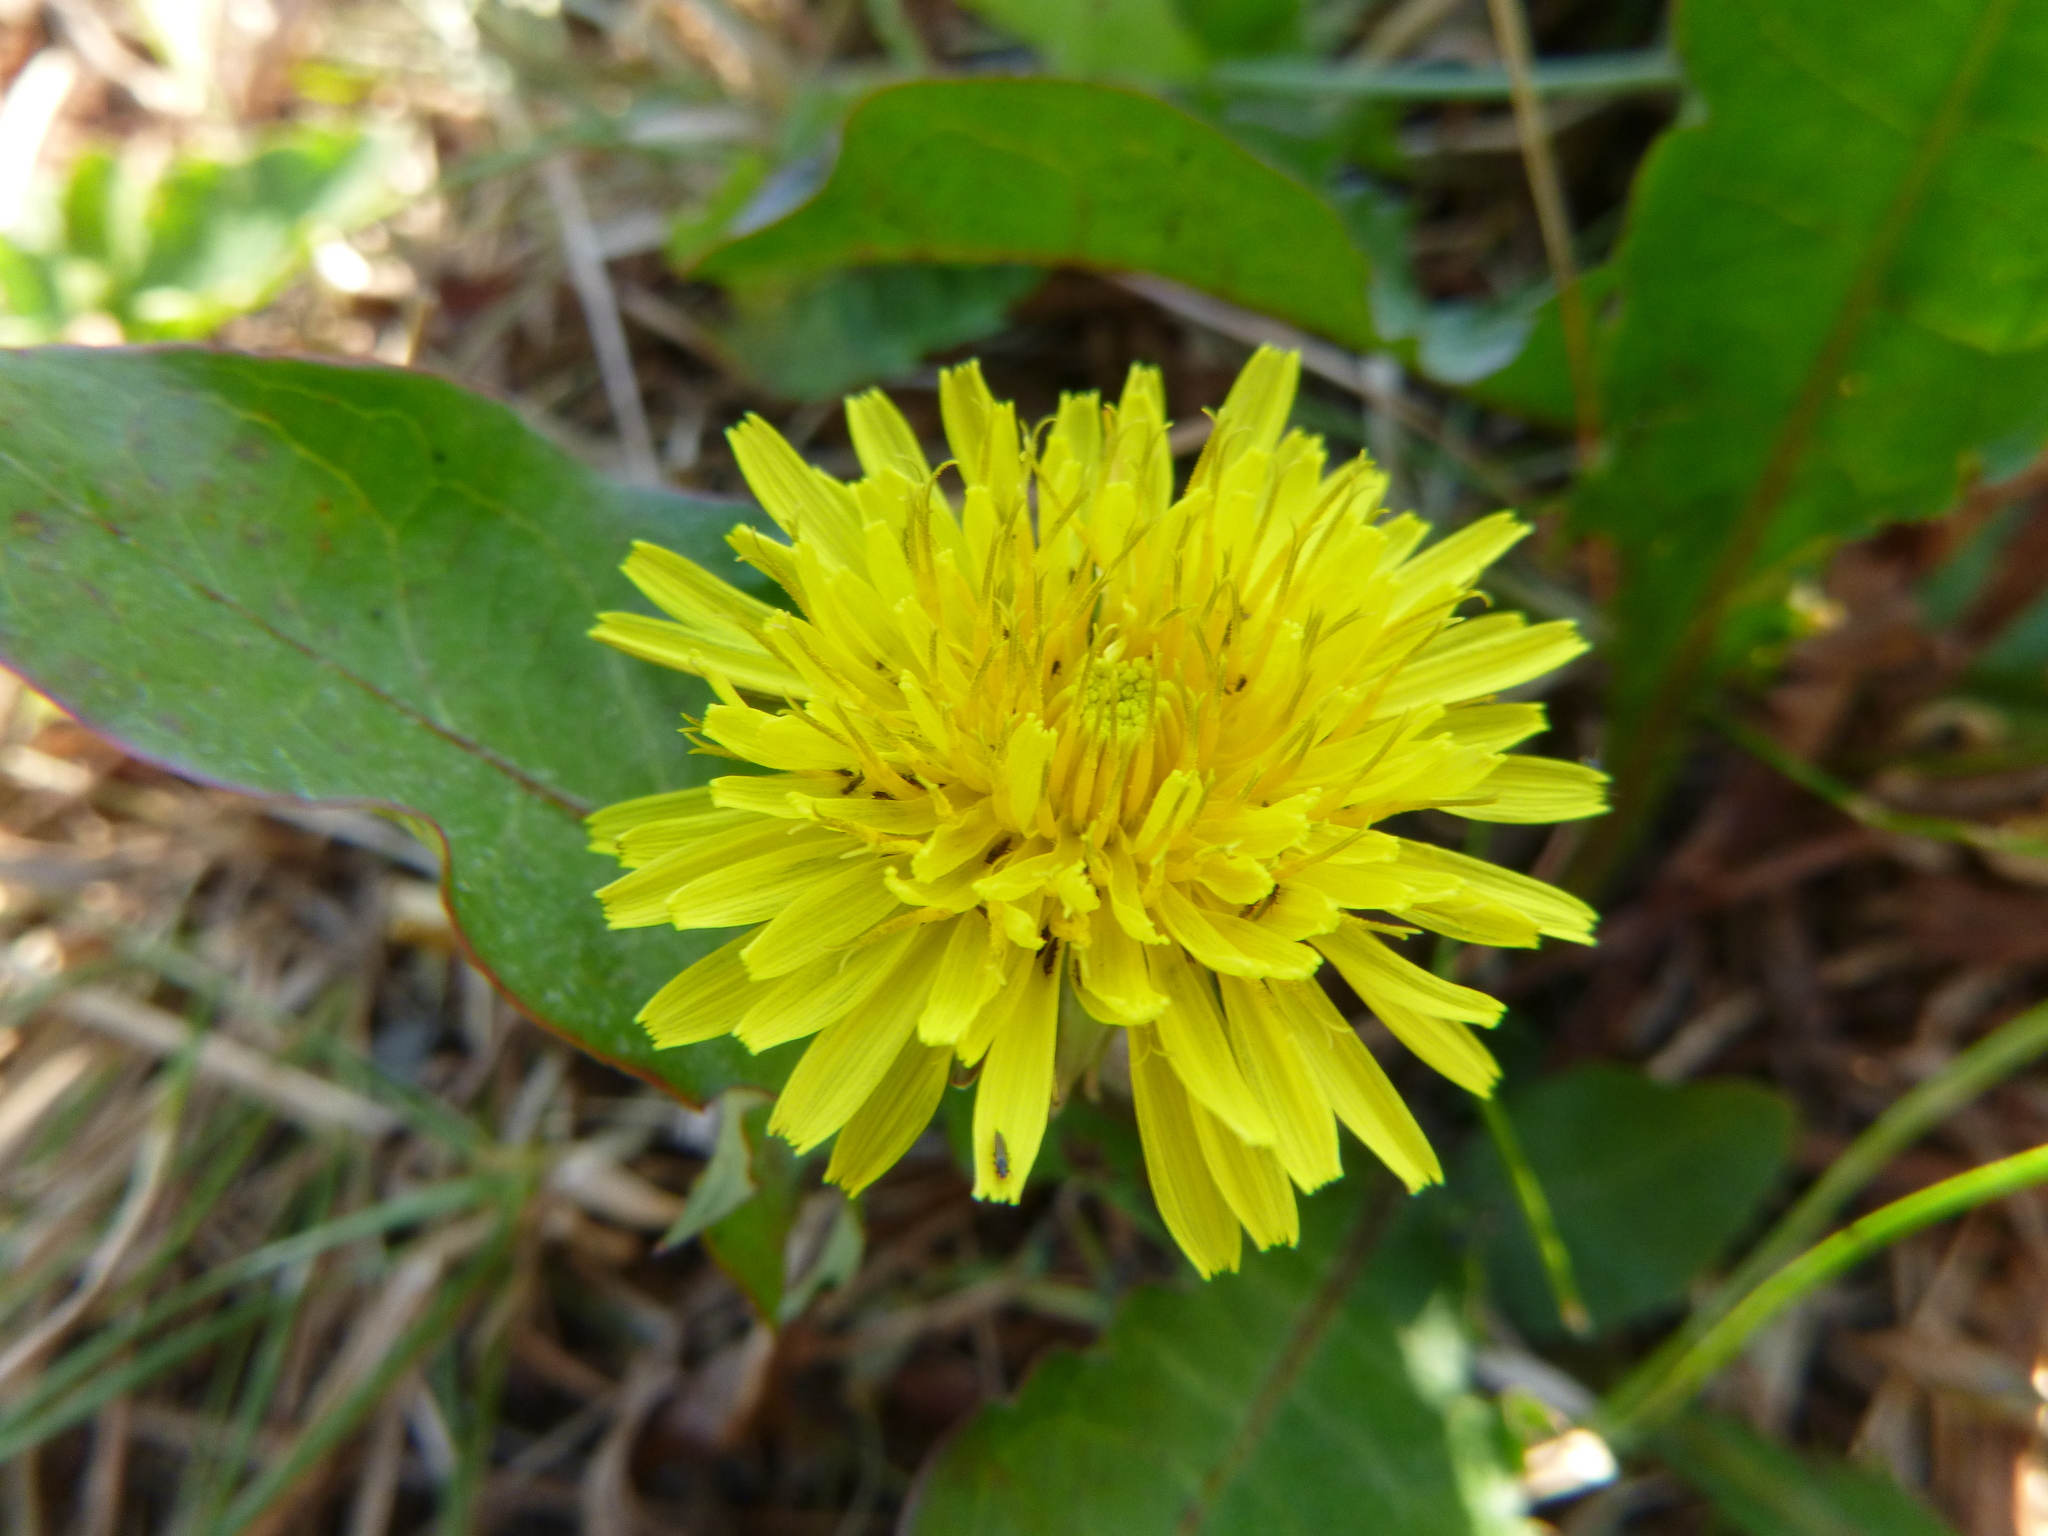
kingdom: Plantae
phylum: Tracheophyta
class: Magnoliopsida
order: Asterales
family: Asteraceae
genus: Taraxacum
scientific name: Taraxacum officinale
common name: Common dandelion
